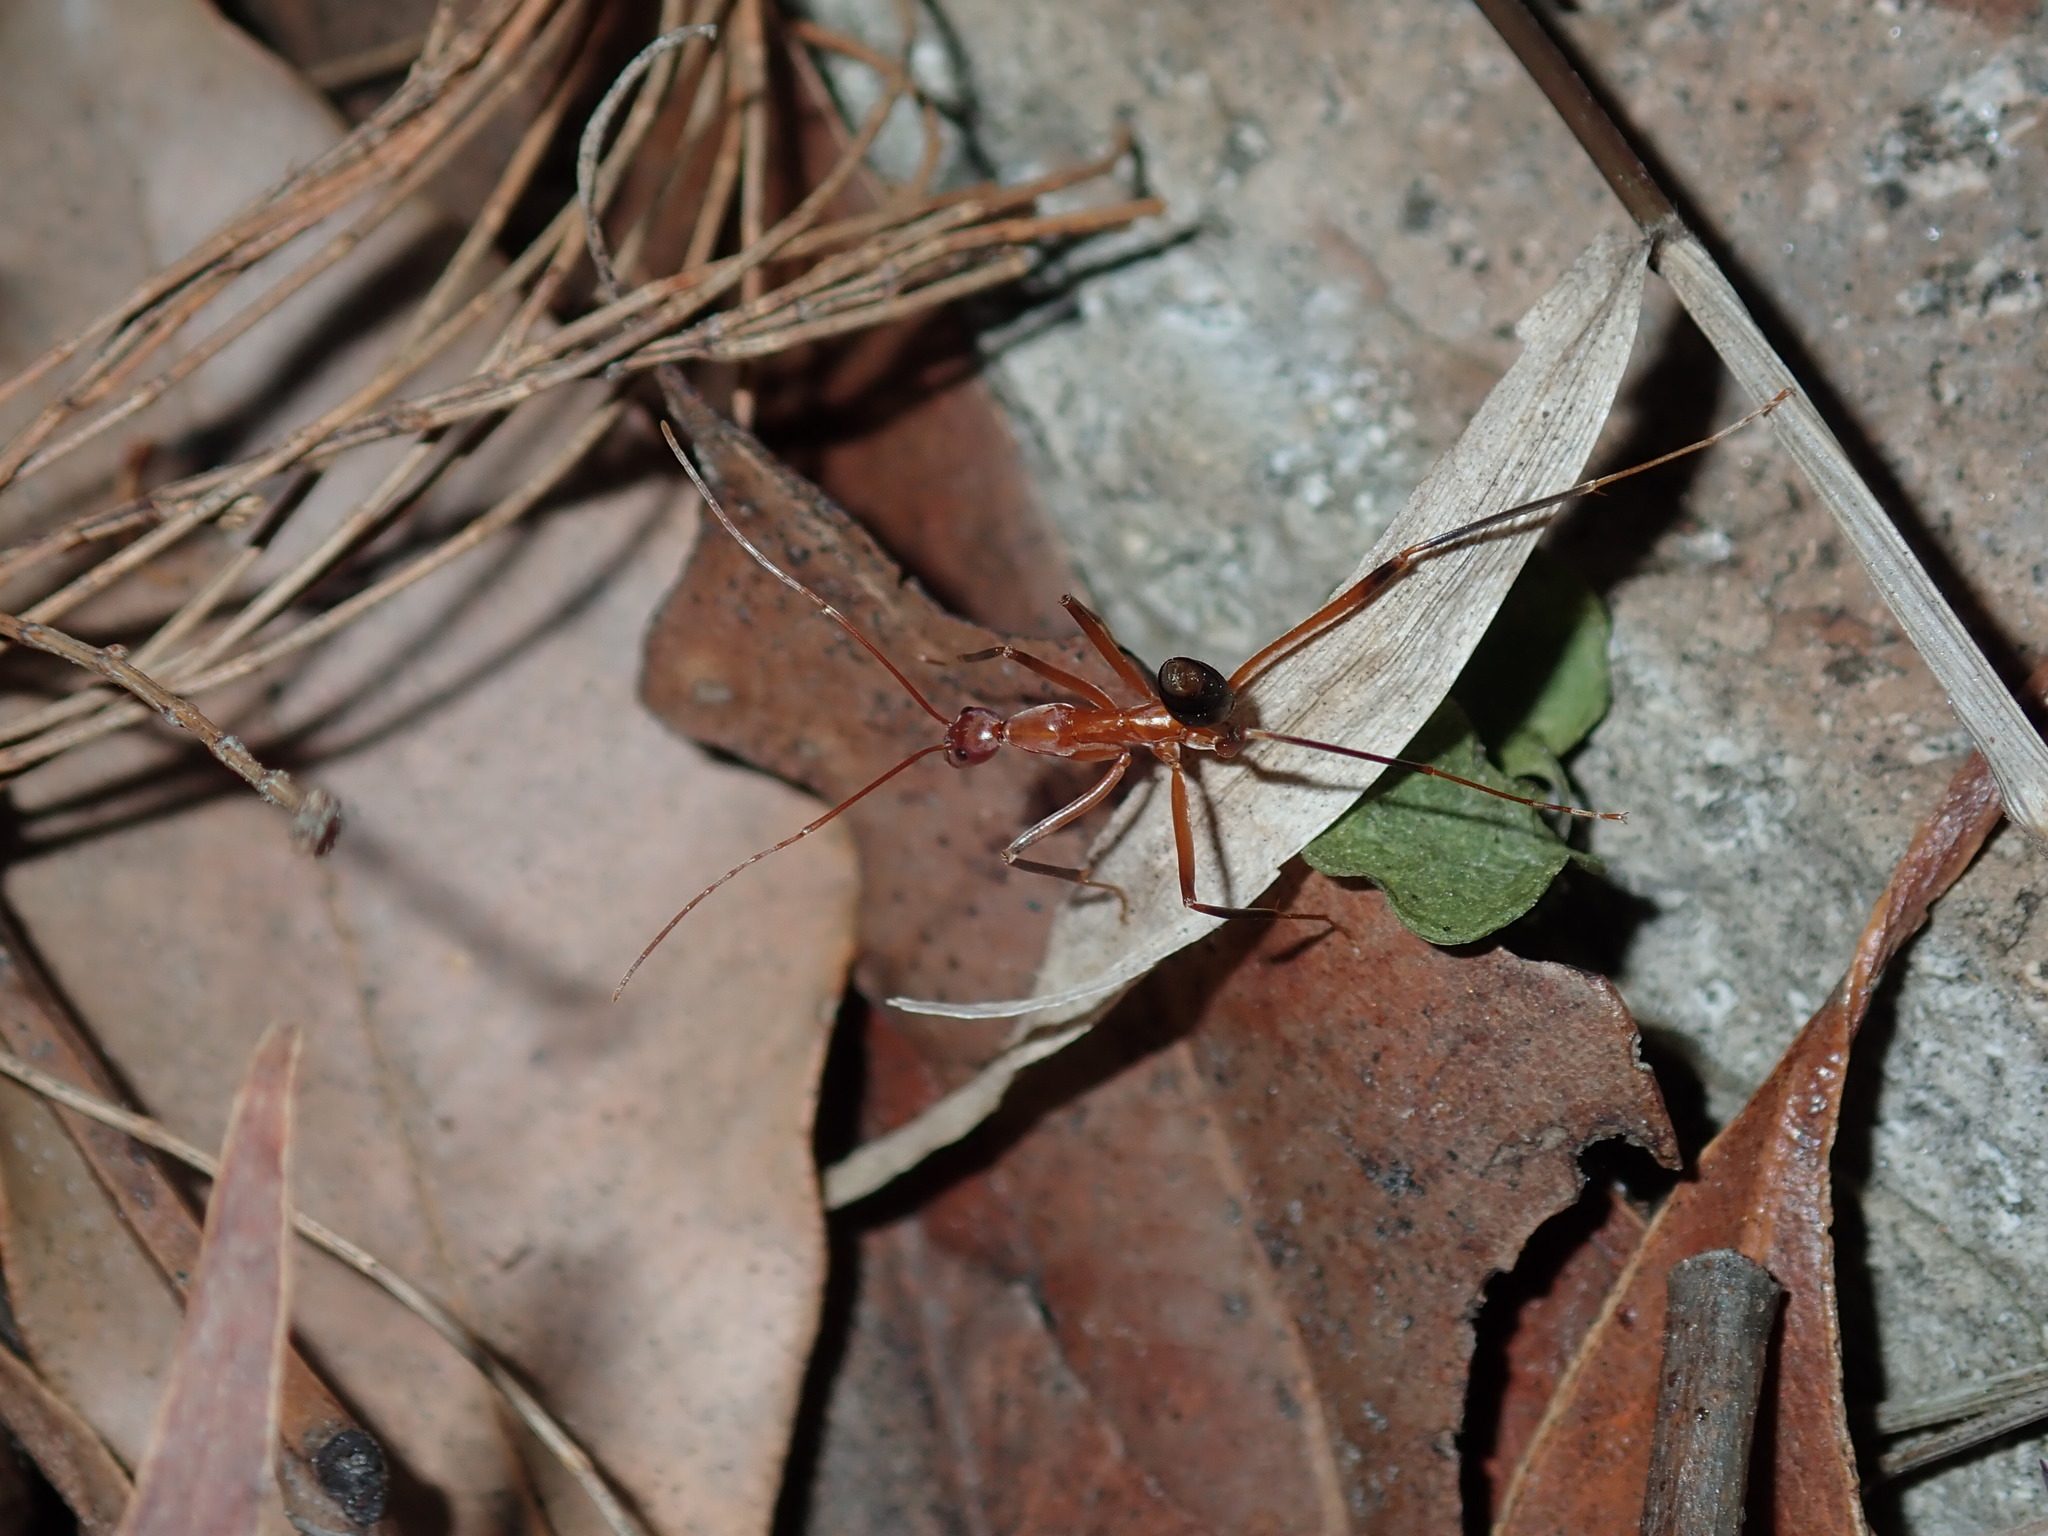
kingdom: Animalia
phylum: Arthropoda
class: Insecta
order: Hymenoptera
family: Formicidae
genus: Leptomyrmex
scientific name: Leptomyrmex cnemidatus
